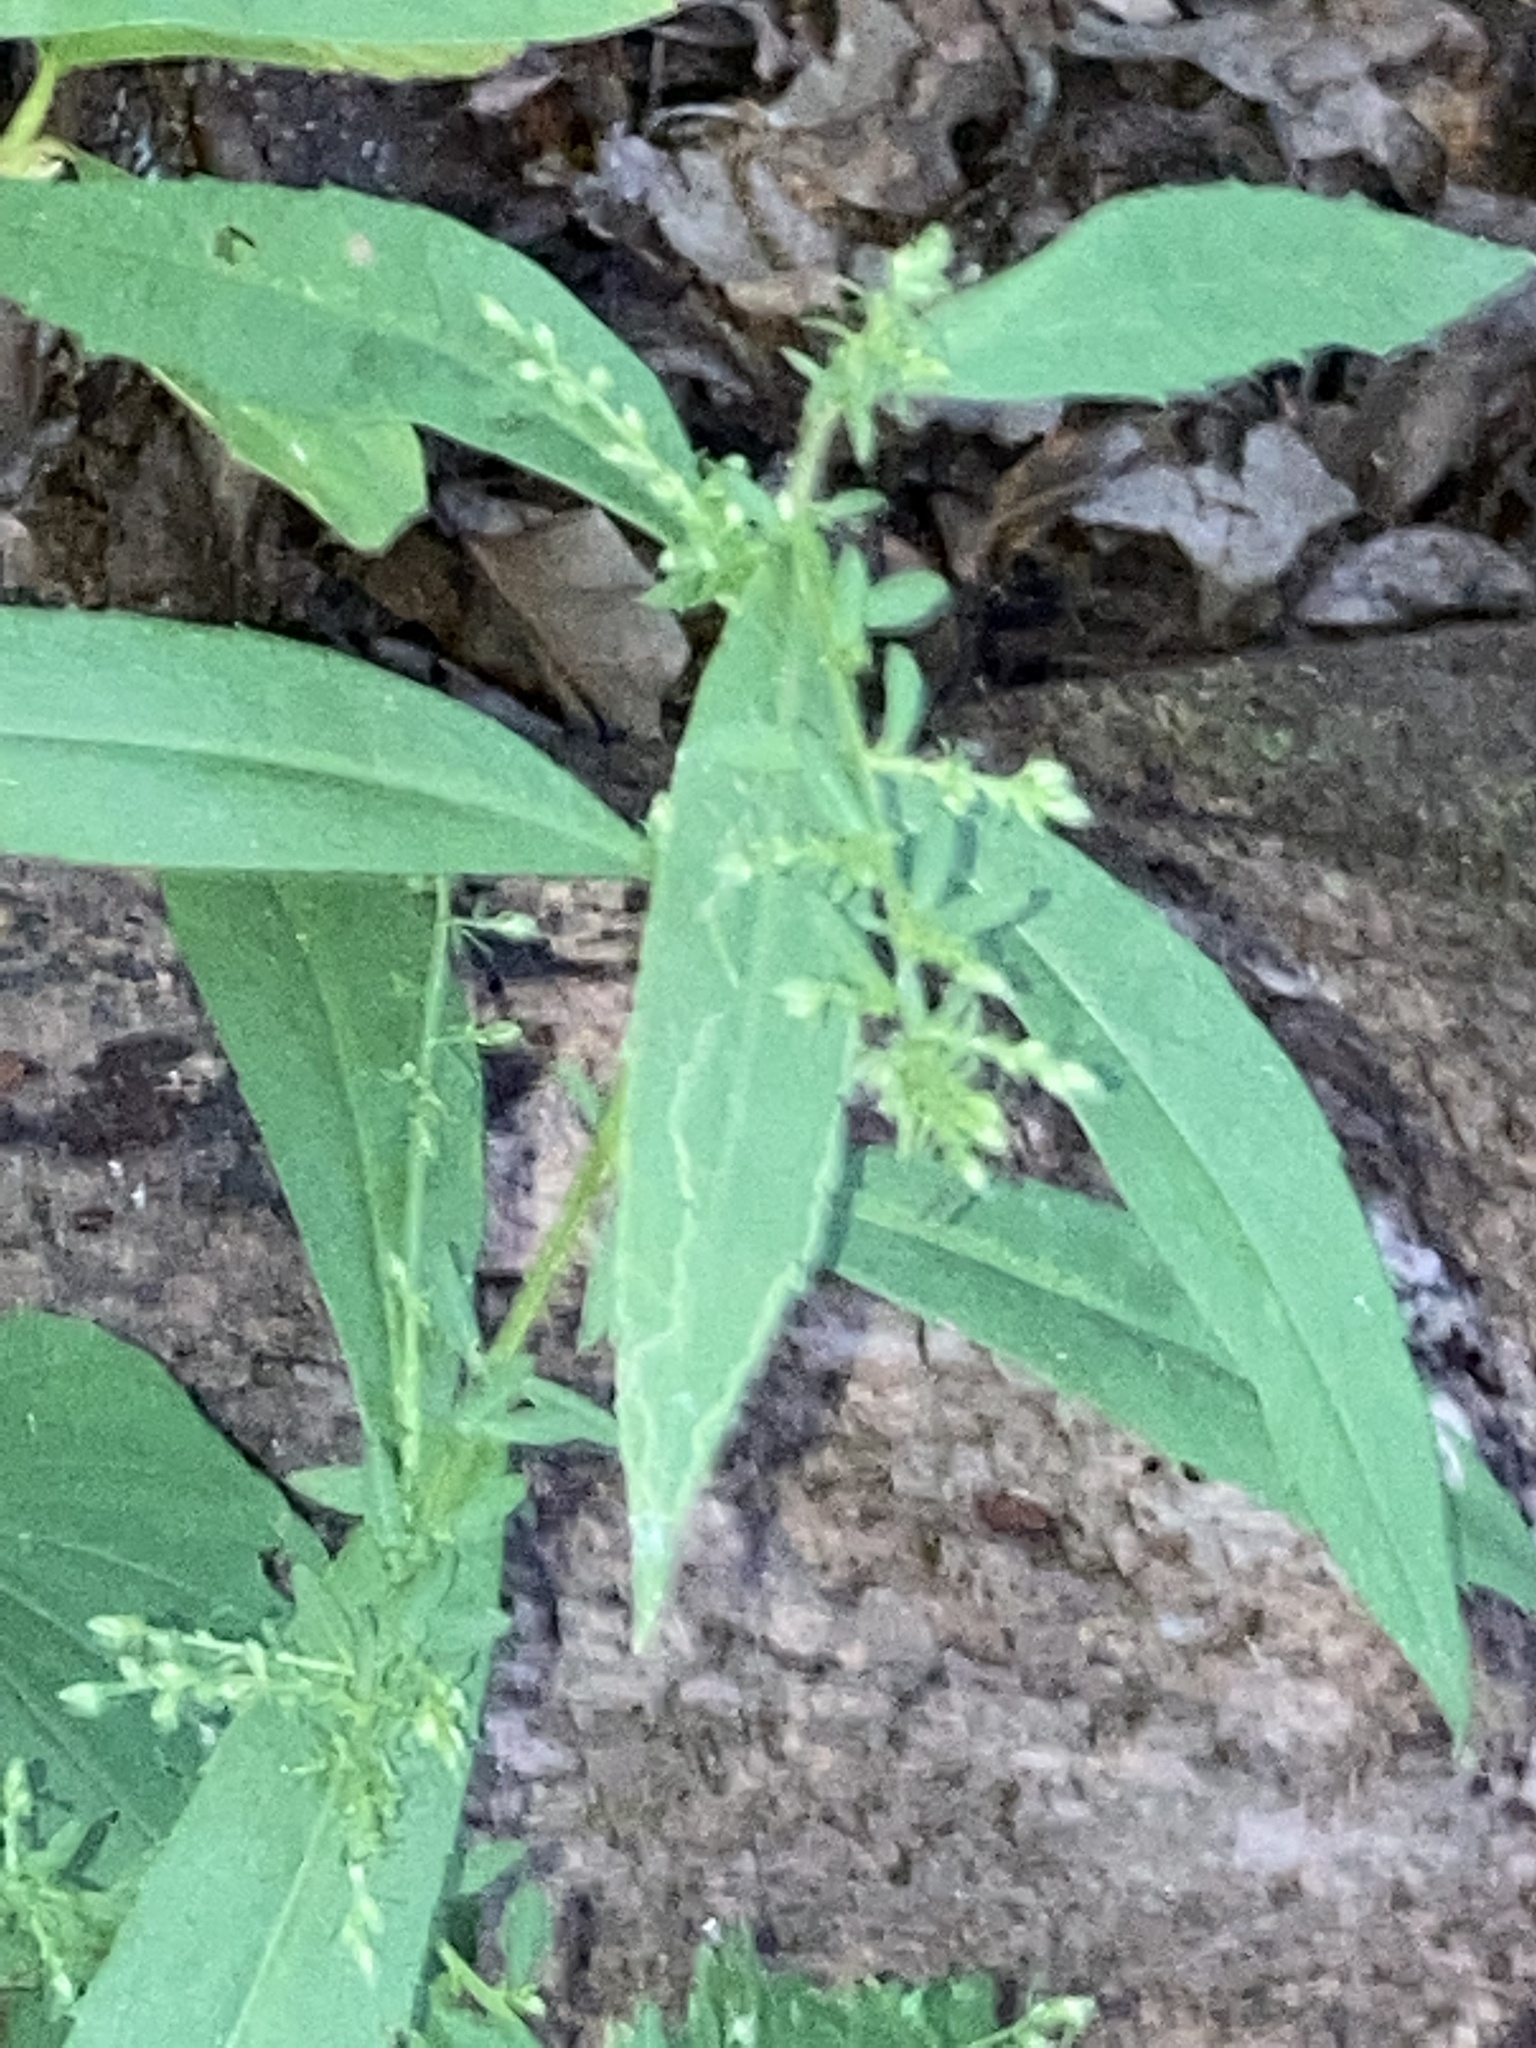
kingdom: Plantae
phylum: Tracheophyta
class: Magnoliopsida
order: Asterales
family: Asteraceae
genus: Symphyotrichum
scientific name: Symphyotrichum lateriflorum
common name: Calico aster
